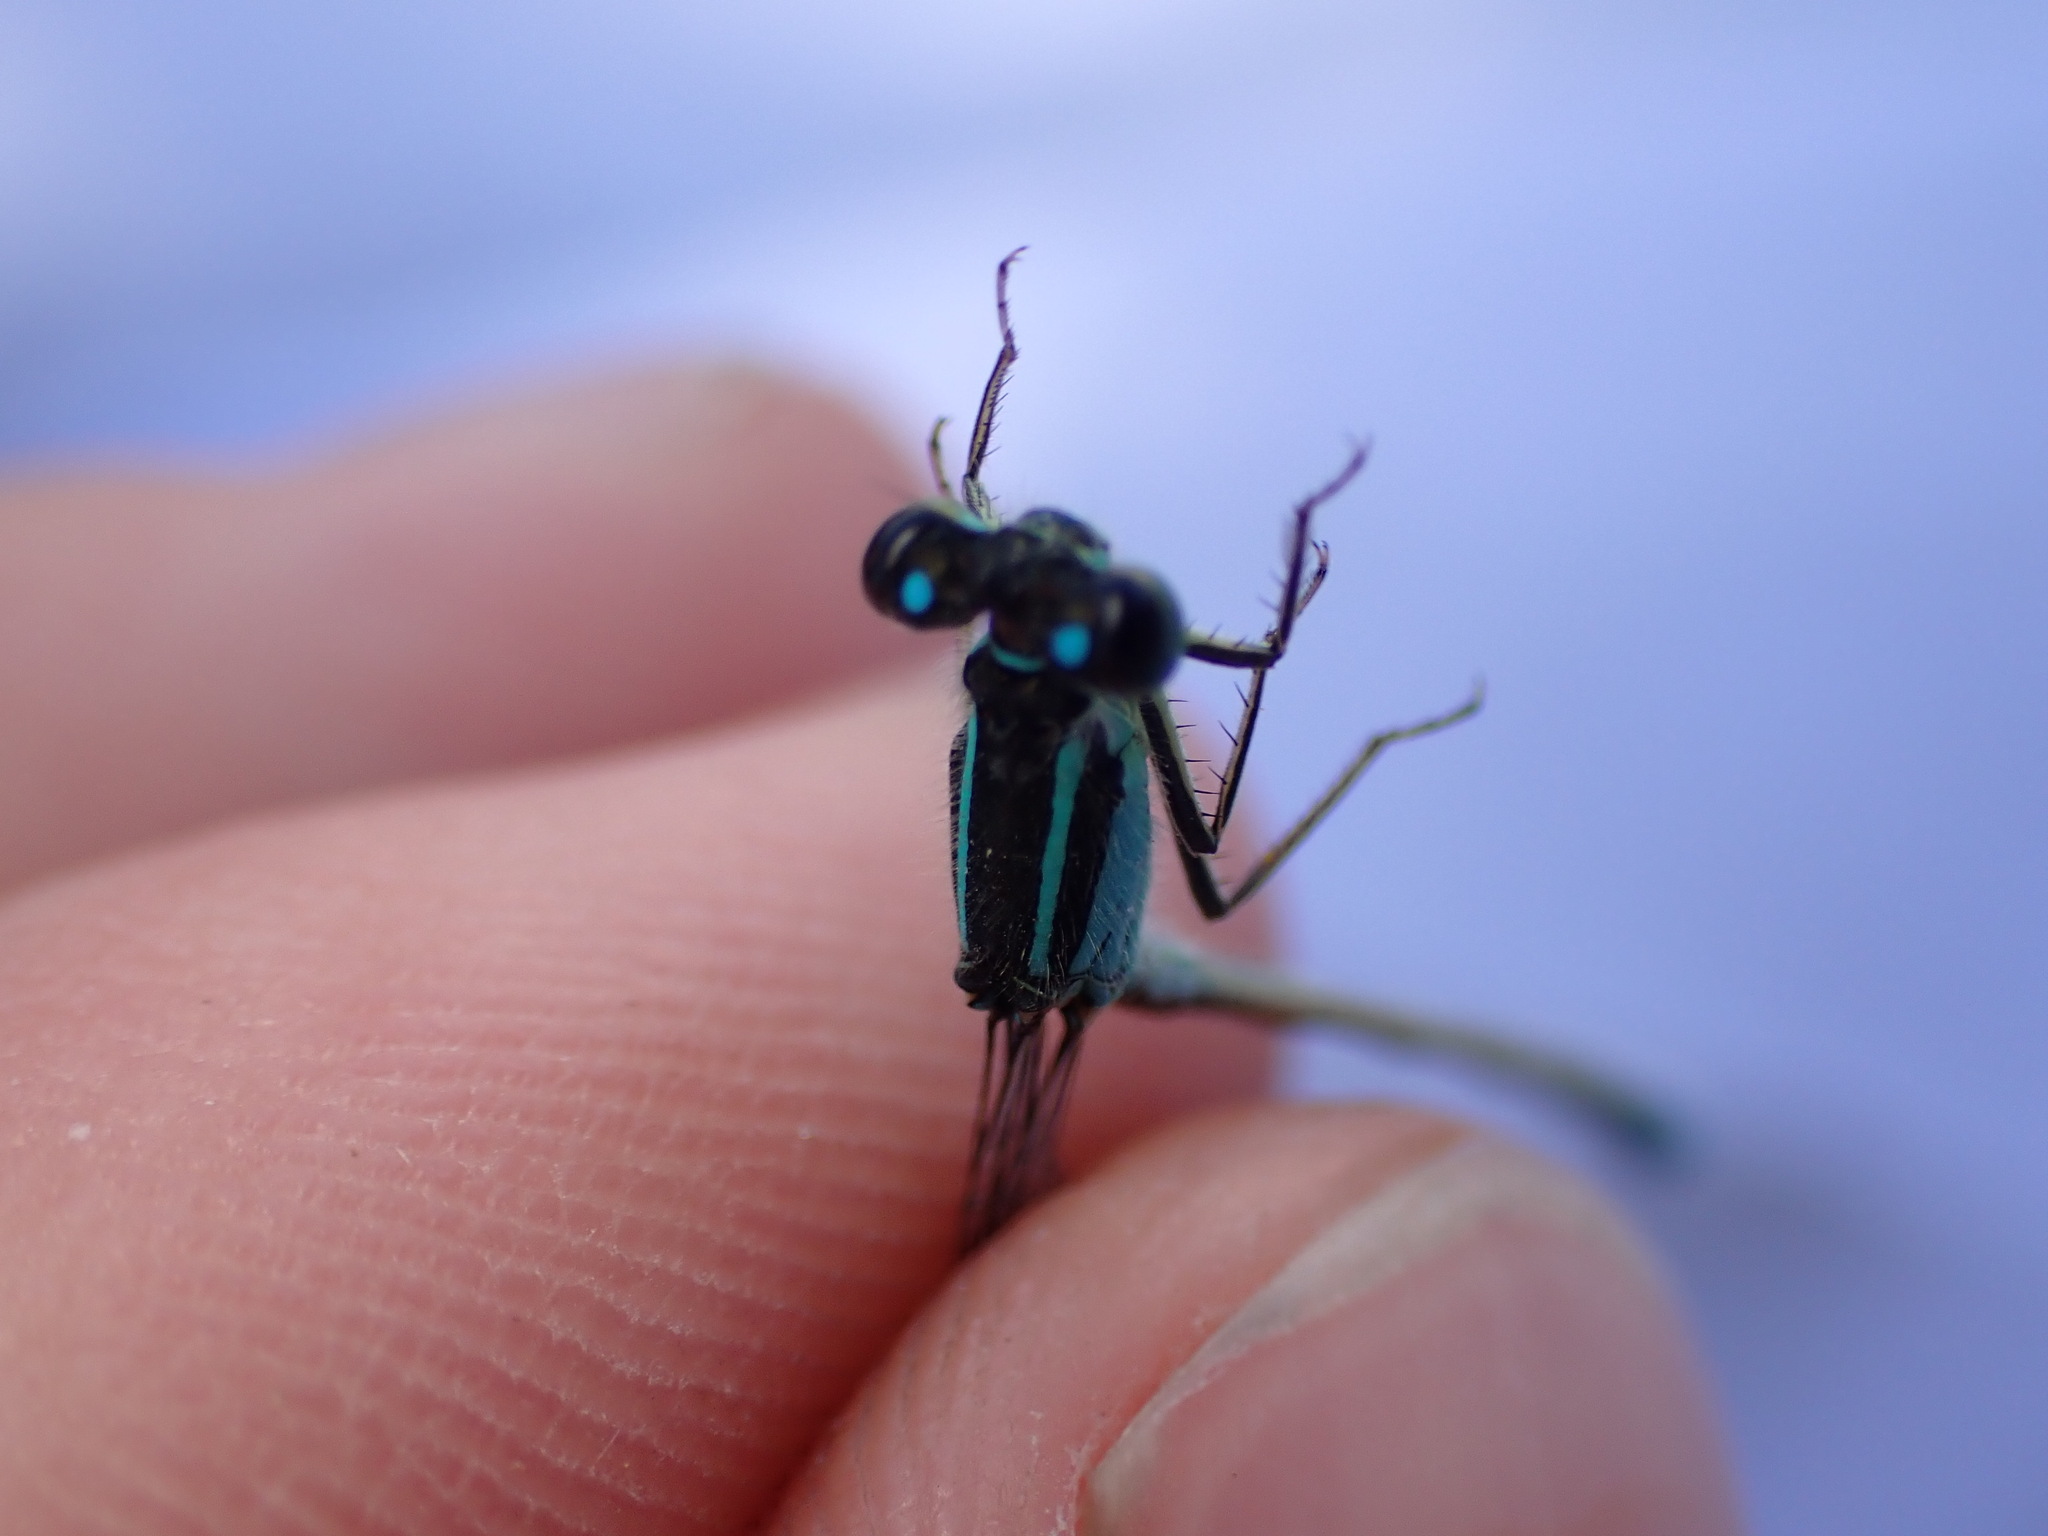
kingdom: Animalia
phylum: Arthropoda
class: Insecta
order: Odonata
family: Coenagrionidae
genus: Ischnura
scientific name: Ischnura elegans
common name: Blue-tailed damselfly
